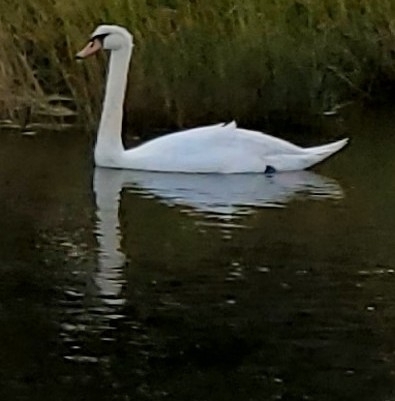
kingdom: Animalia
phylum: Chordata
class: Aves
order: Anseriformes
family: Anatidae
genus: Cygnus
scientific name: Cygnus olor
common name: Mute swan
